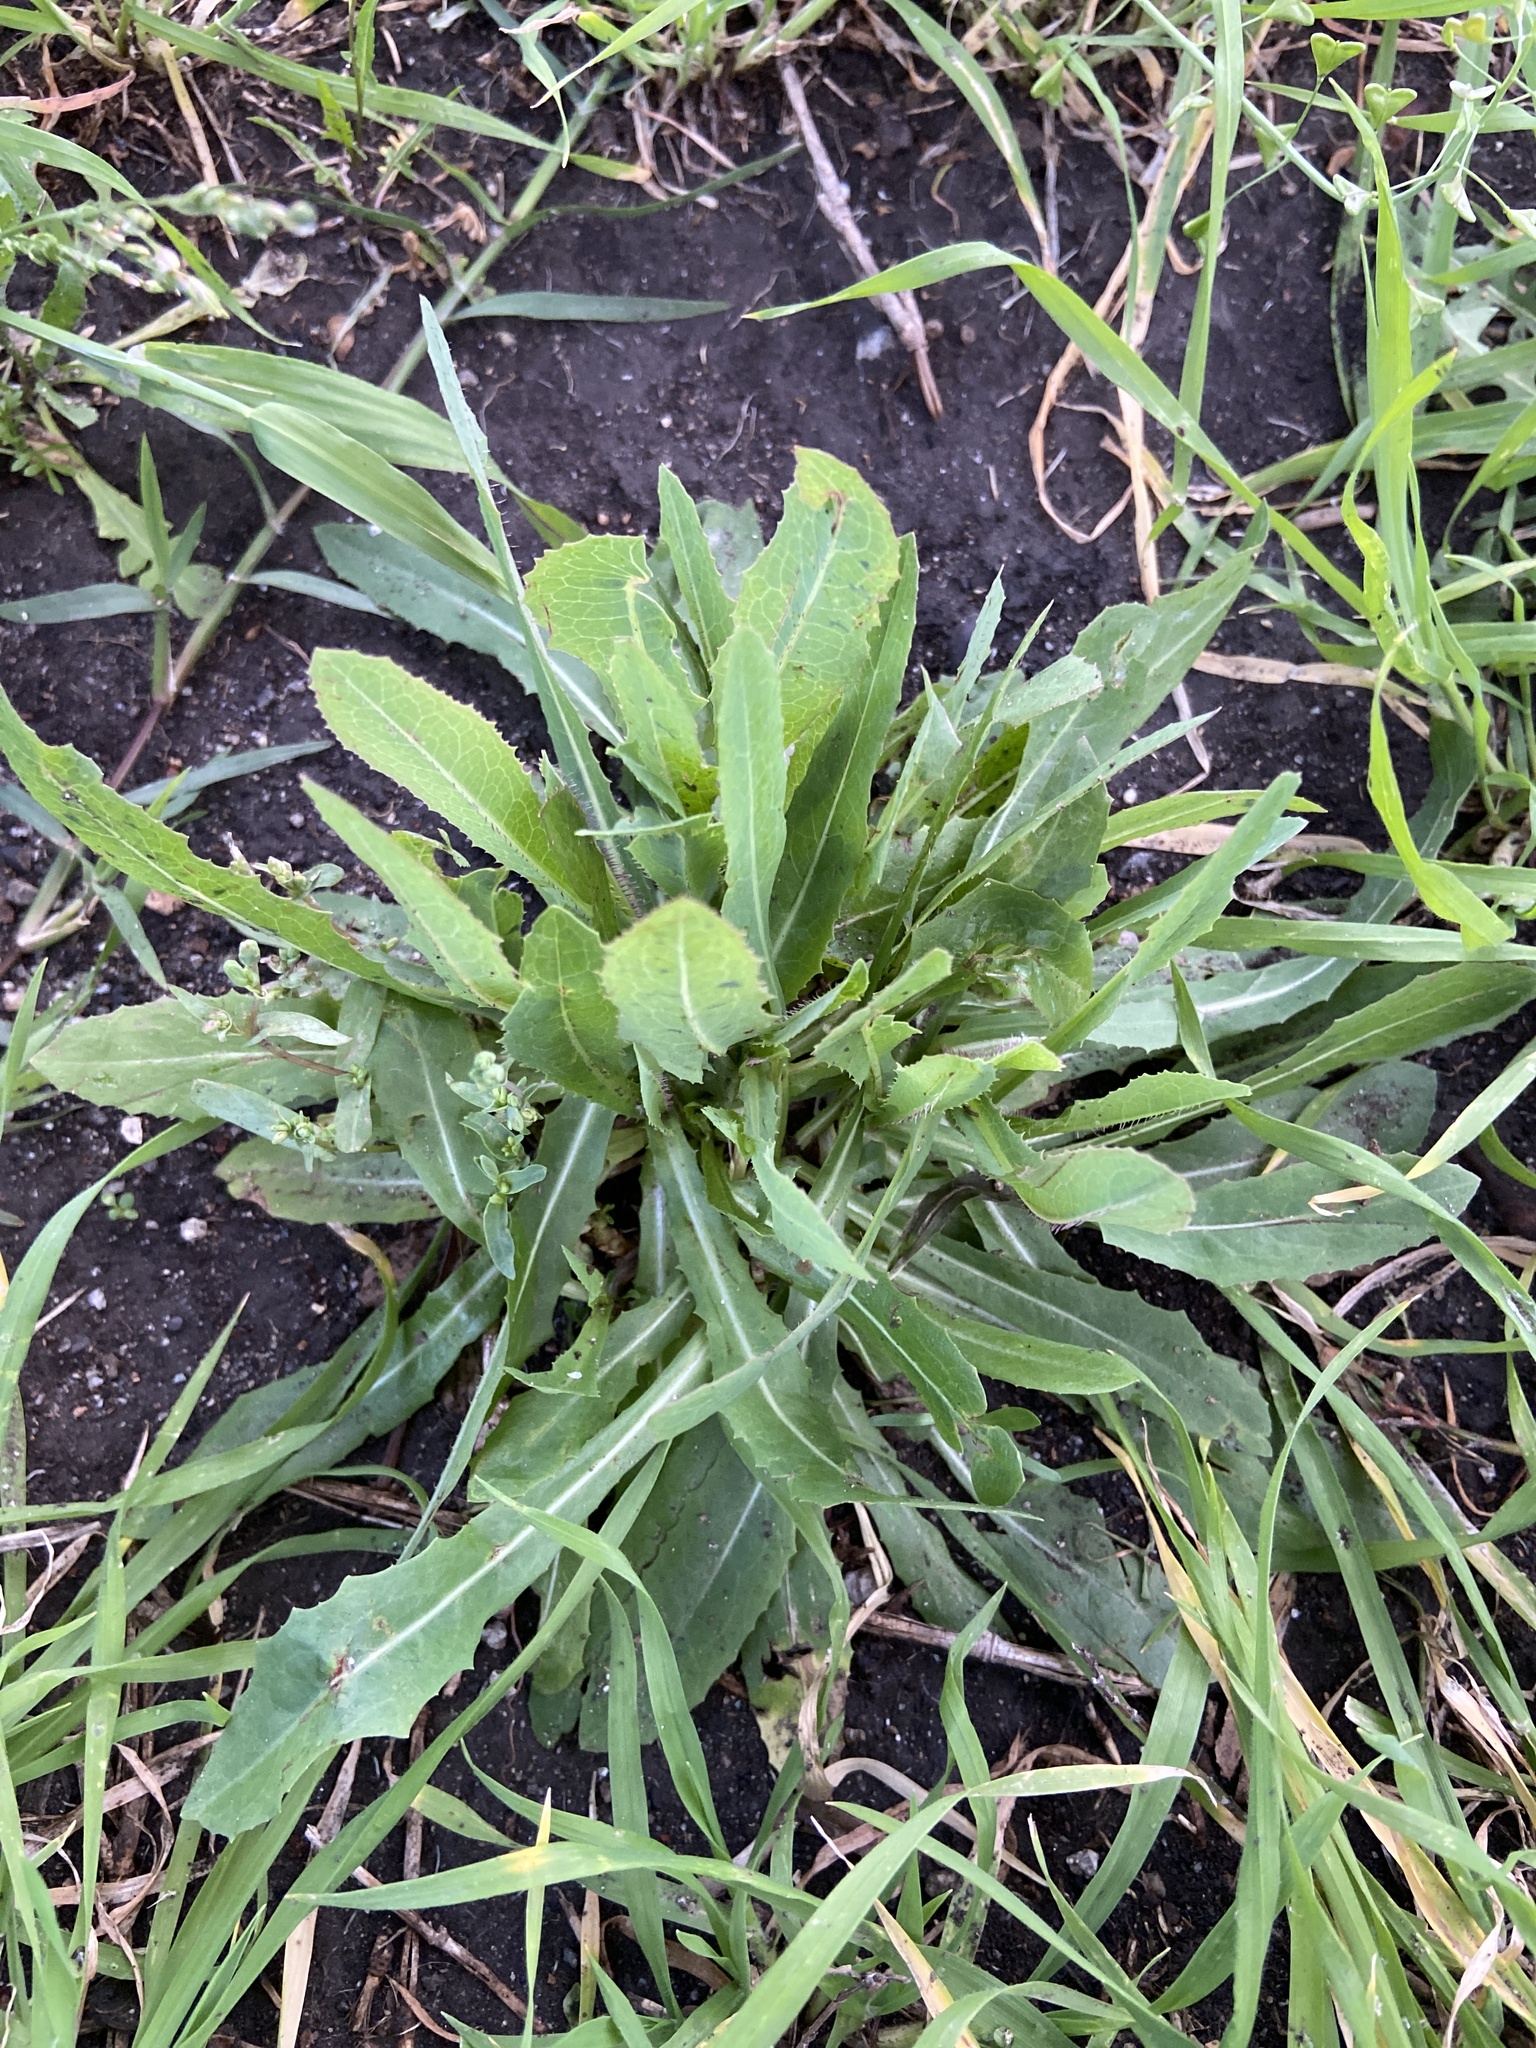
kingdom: Plantae
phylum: Tracheophyta
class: Magnoliopsida
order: Asterales
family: Asteraceae
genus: Lactuca
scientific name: Lactuca serriola
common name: Prickly lettuce
